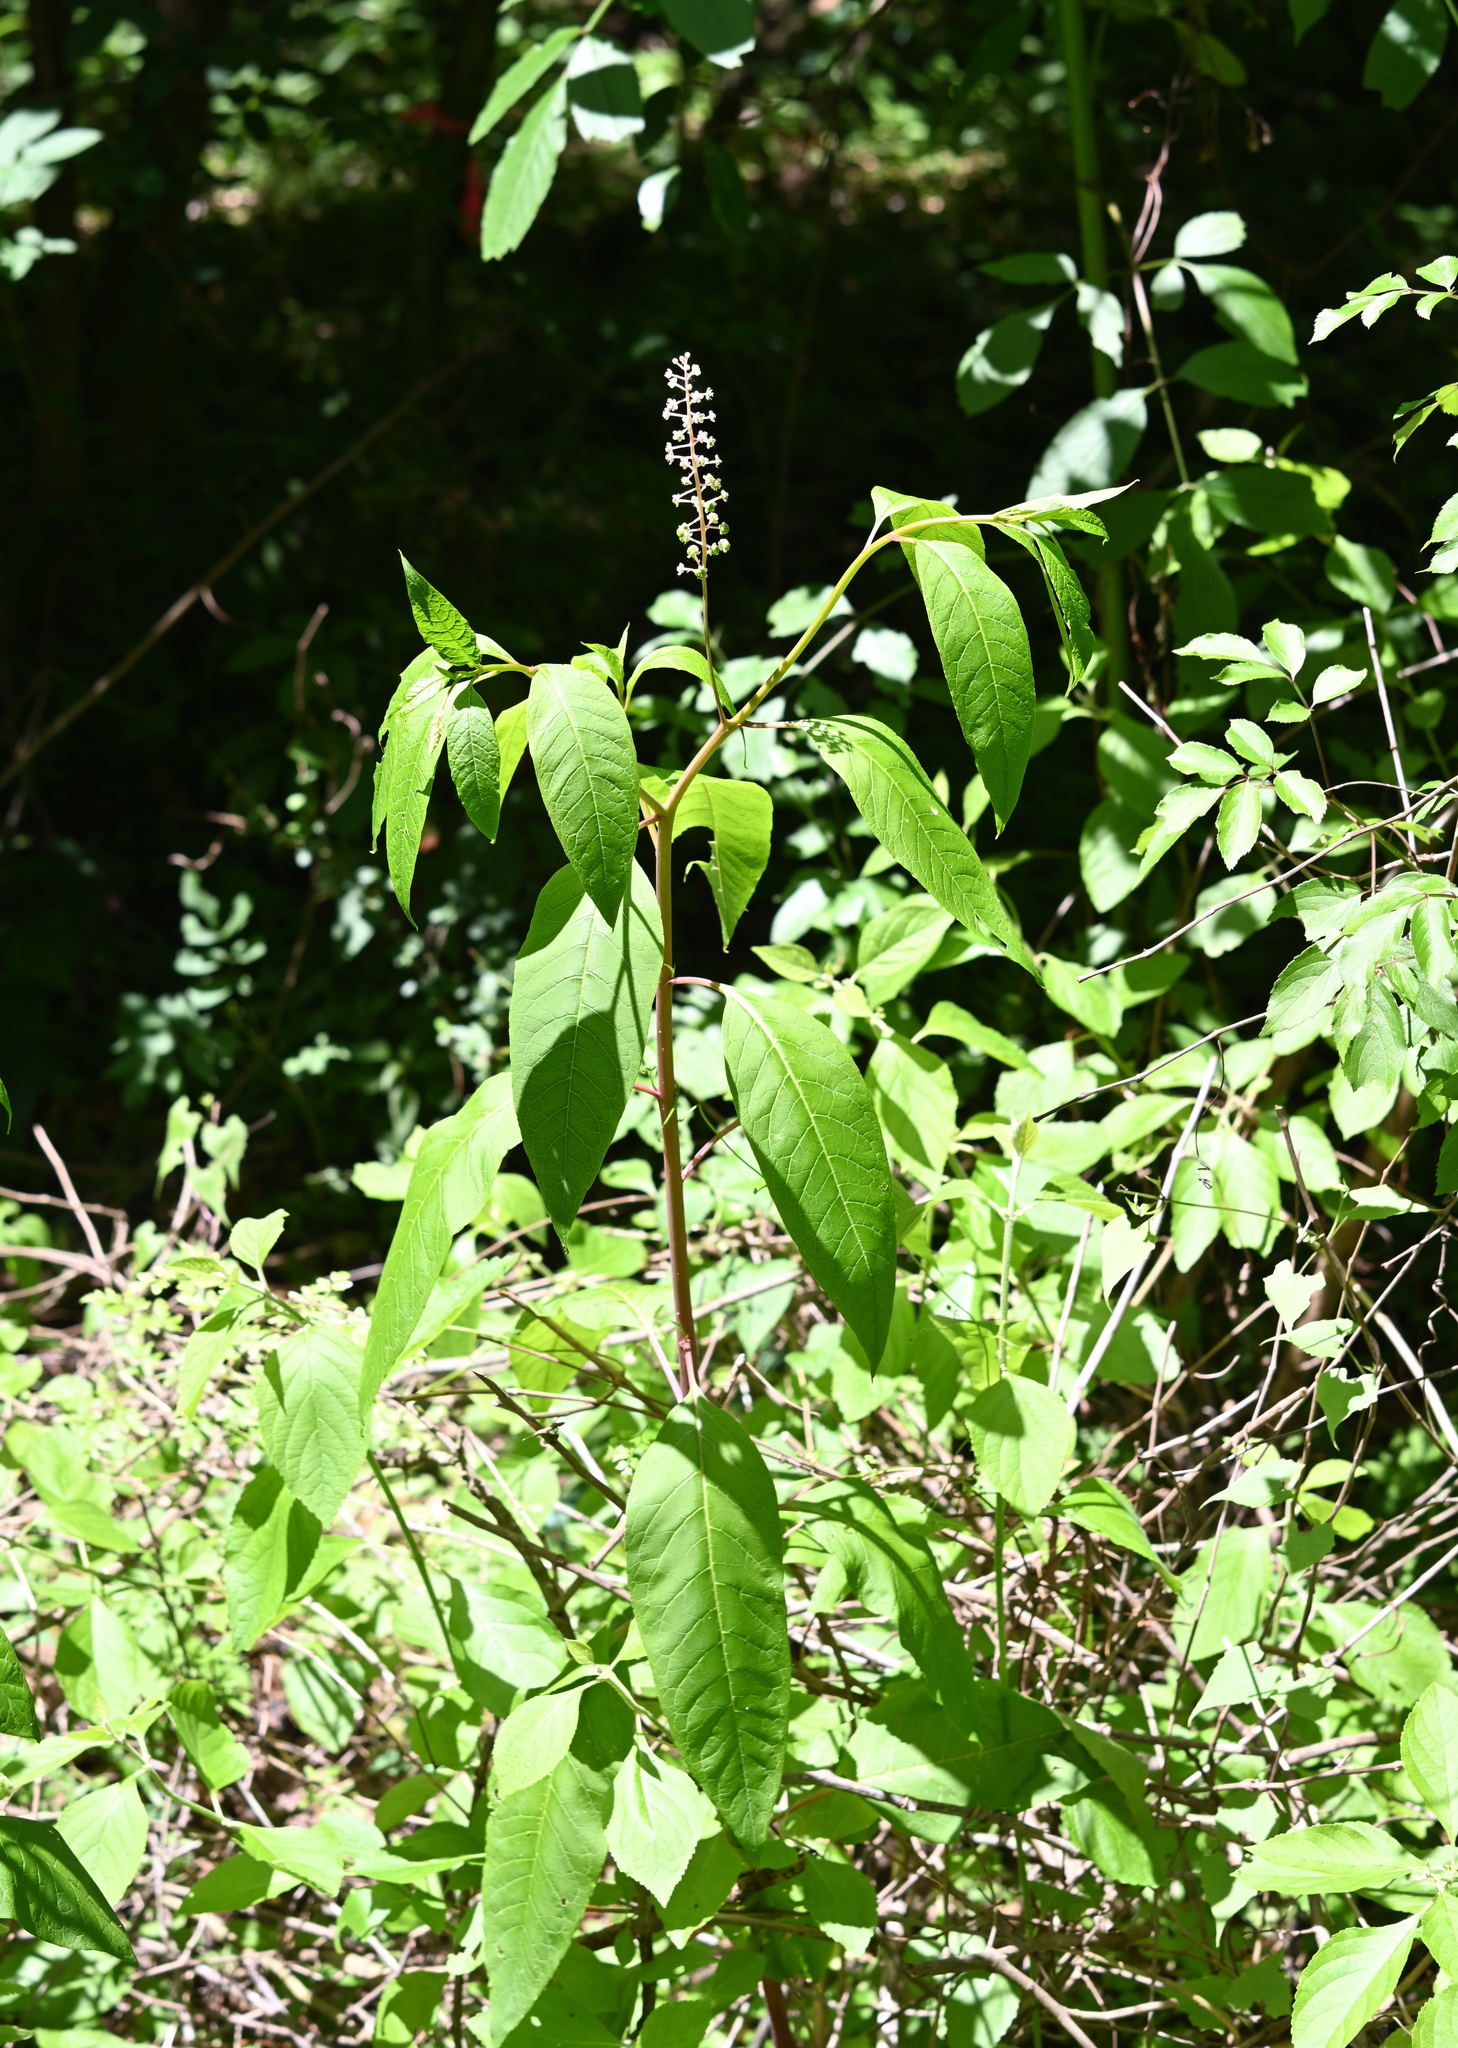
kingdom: Plantae
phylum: Tracheophyta
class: Magnoliopsida
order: Caryophyllales
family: Phytolaccaceae
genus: Phytolacca
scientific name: Phytolacca americana
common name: American pokeweed
